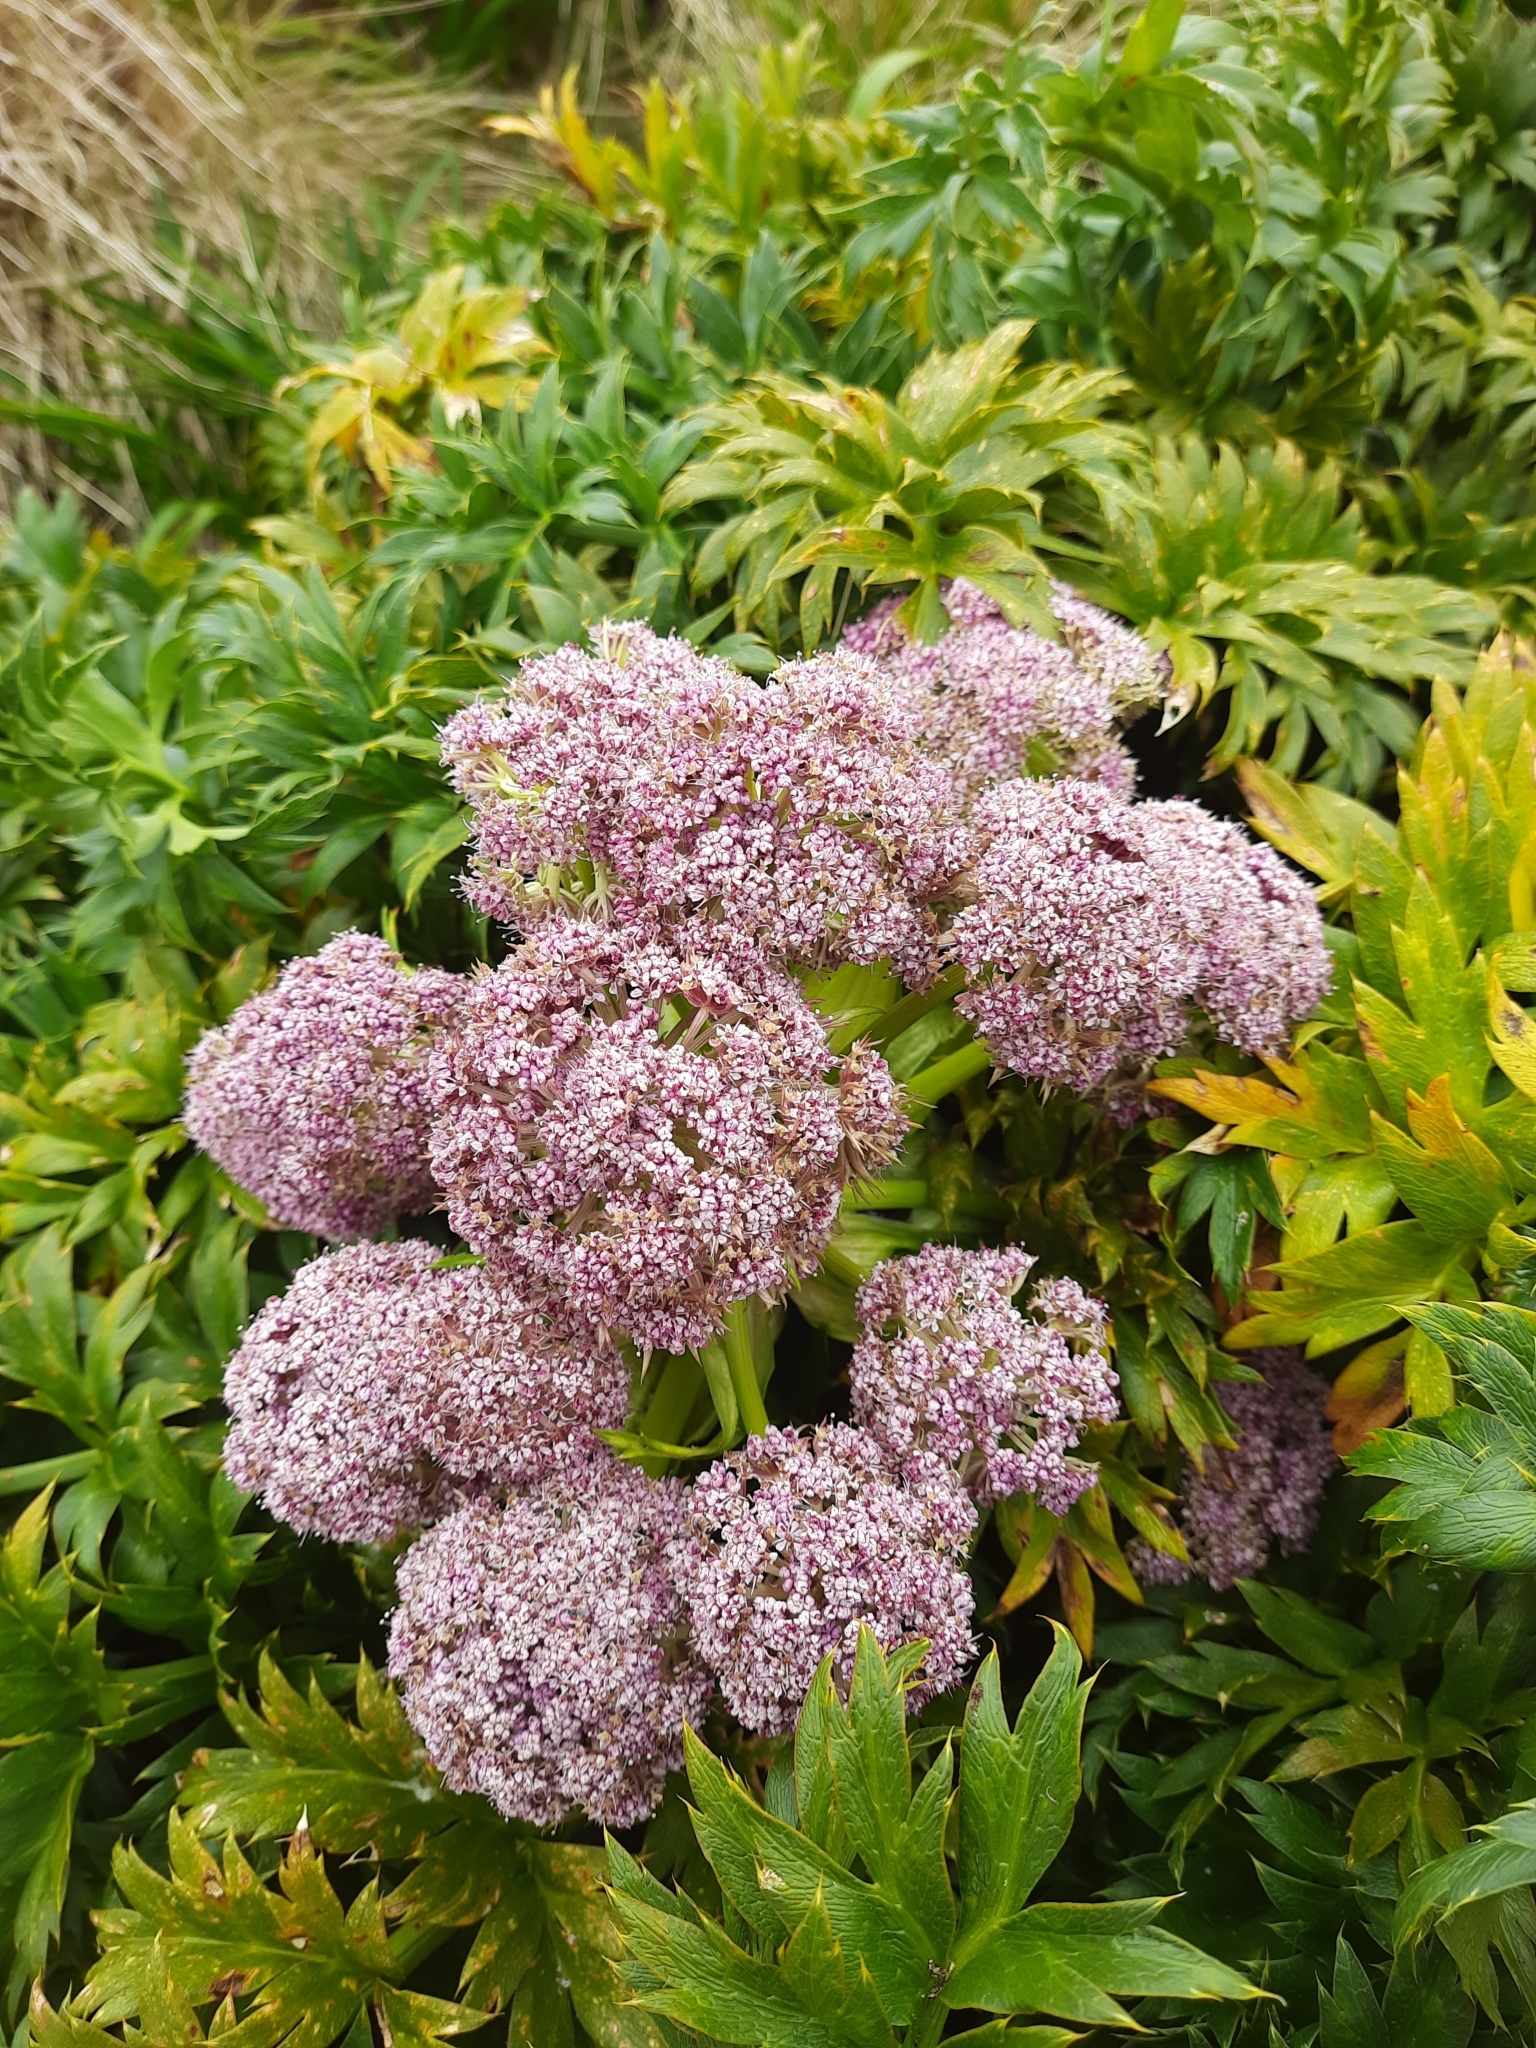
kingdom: Plantae
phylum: Tracheophyta
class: Magnoliopsida
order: Apiales
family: Apiaceae
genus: Anisotome
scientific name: Anisotome latifolia
